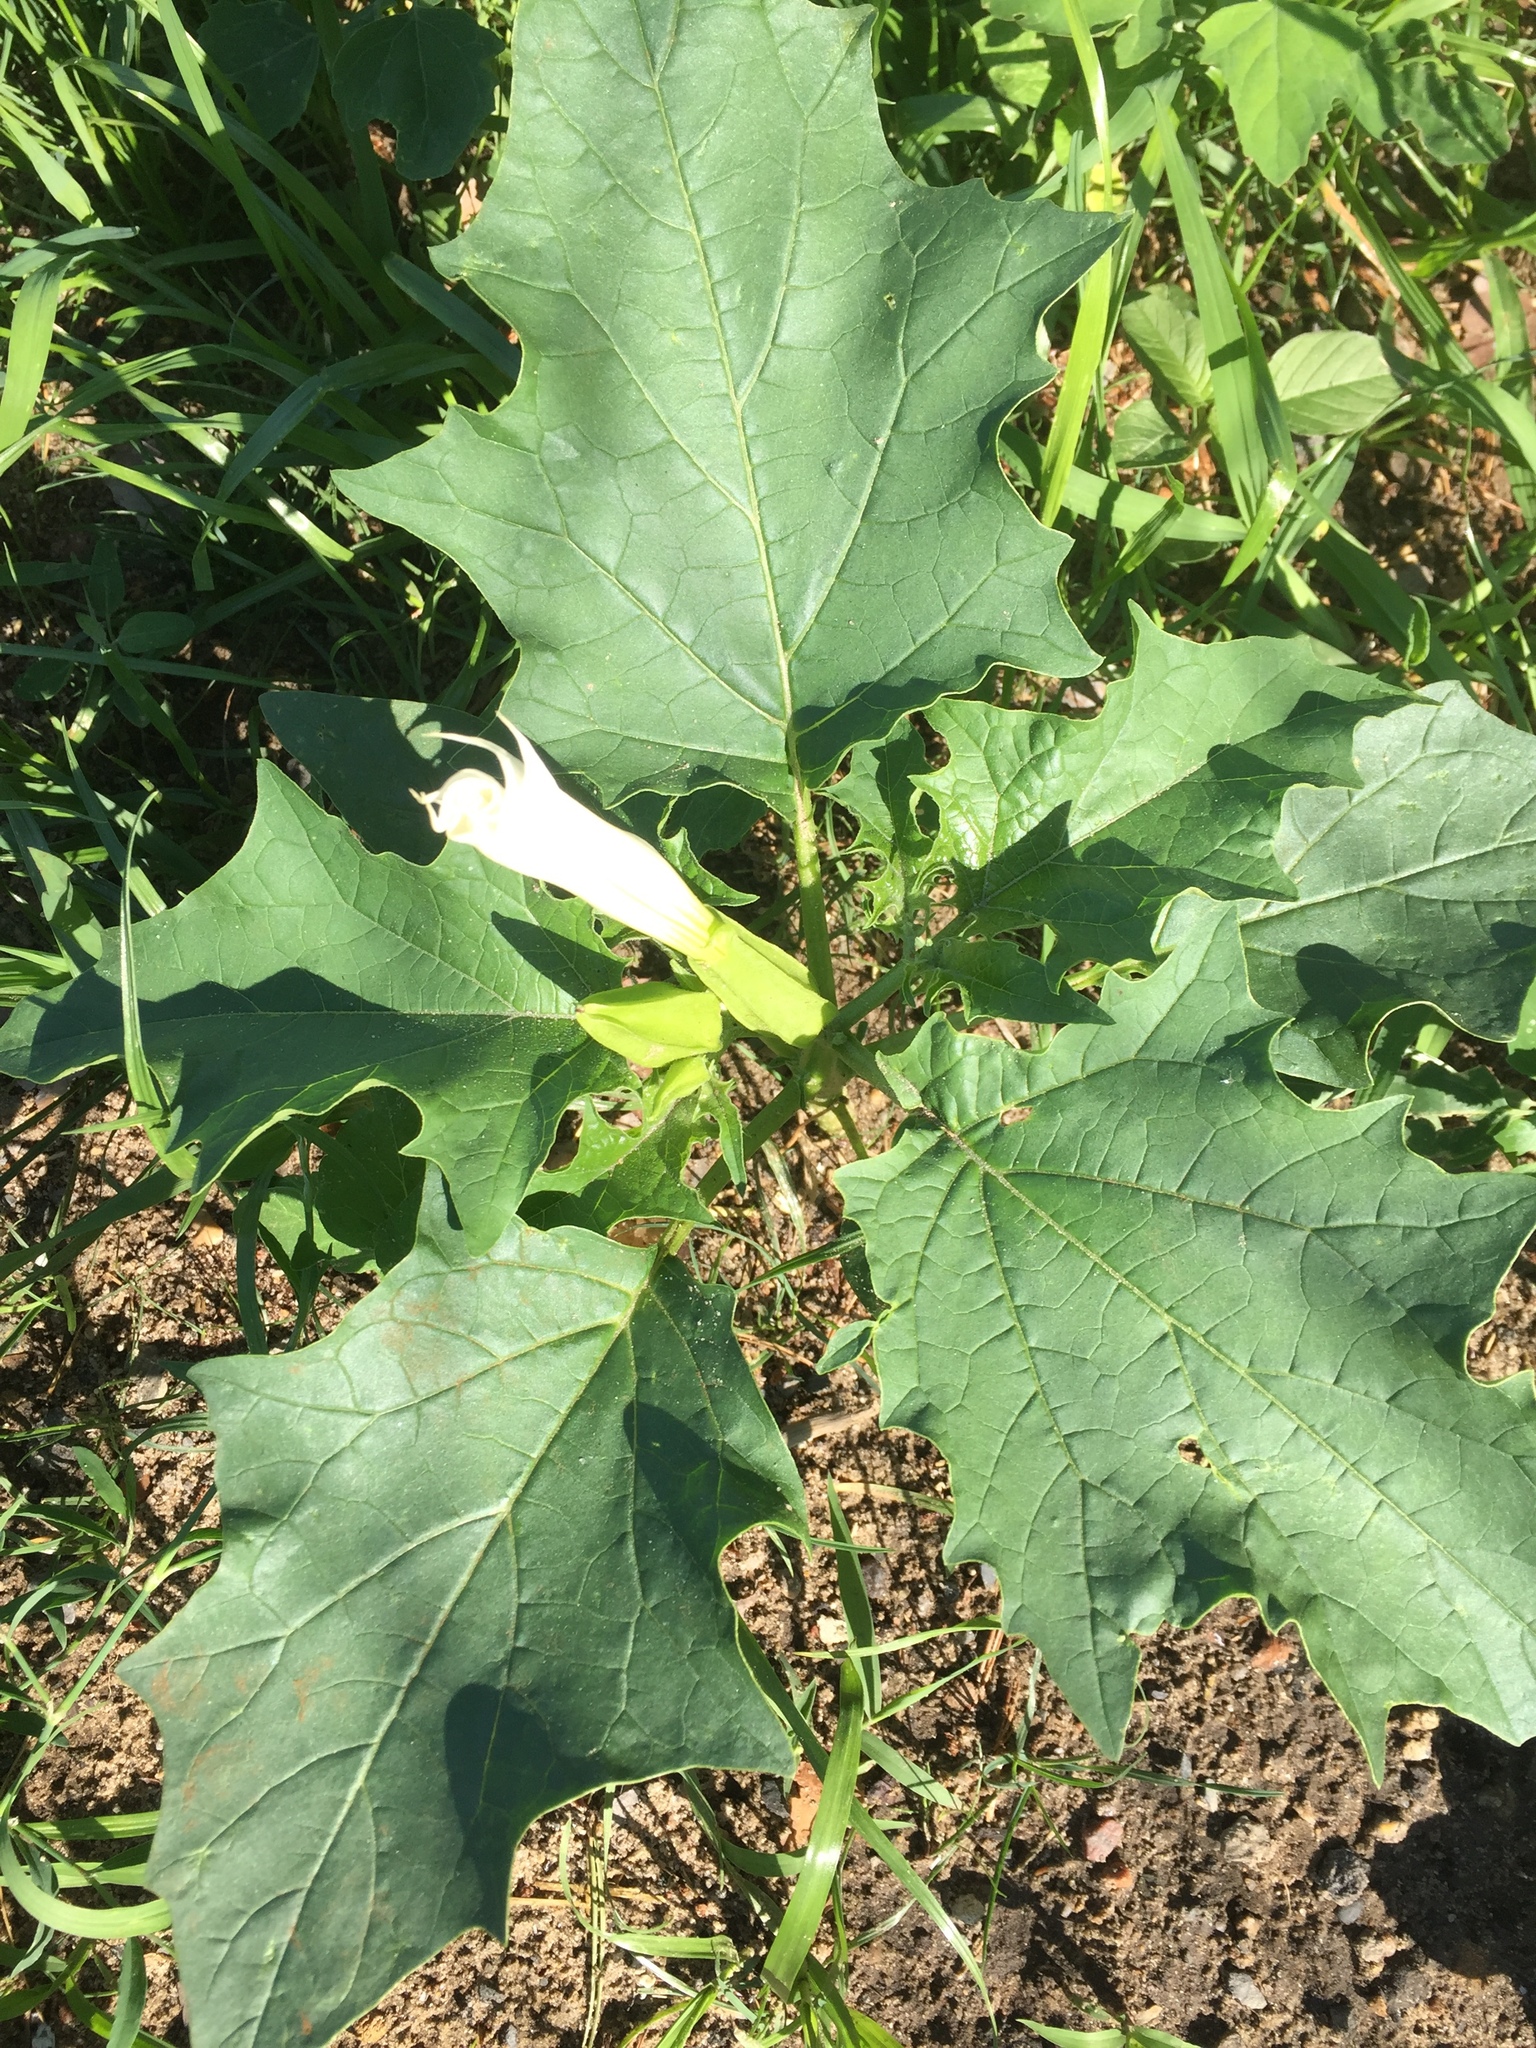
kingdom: Plantae
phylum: Tracheophyta
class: Magnoliopsida
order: Solanales
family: Solanaceae
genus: Datura
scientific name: Datura stramonium
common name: Thorn-apple
